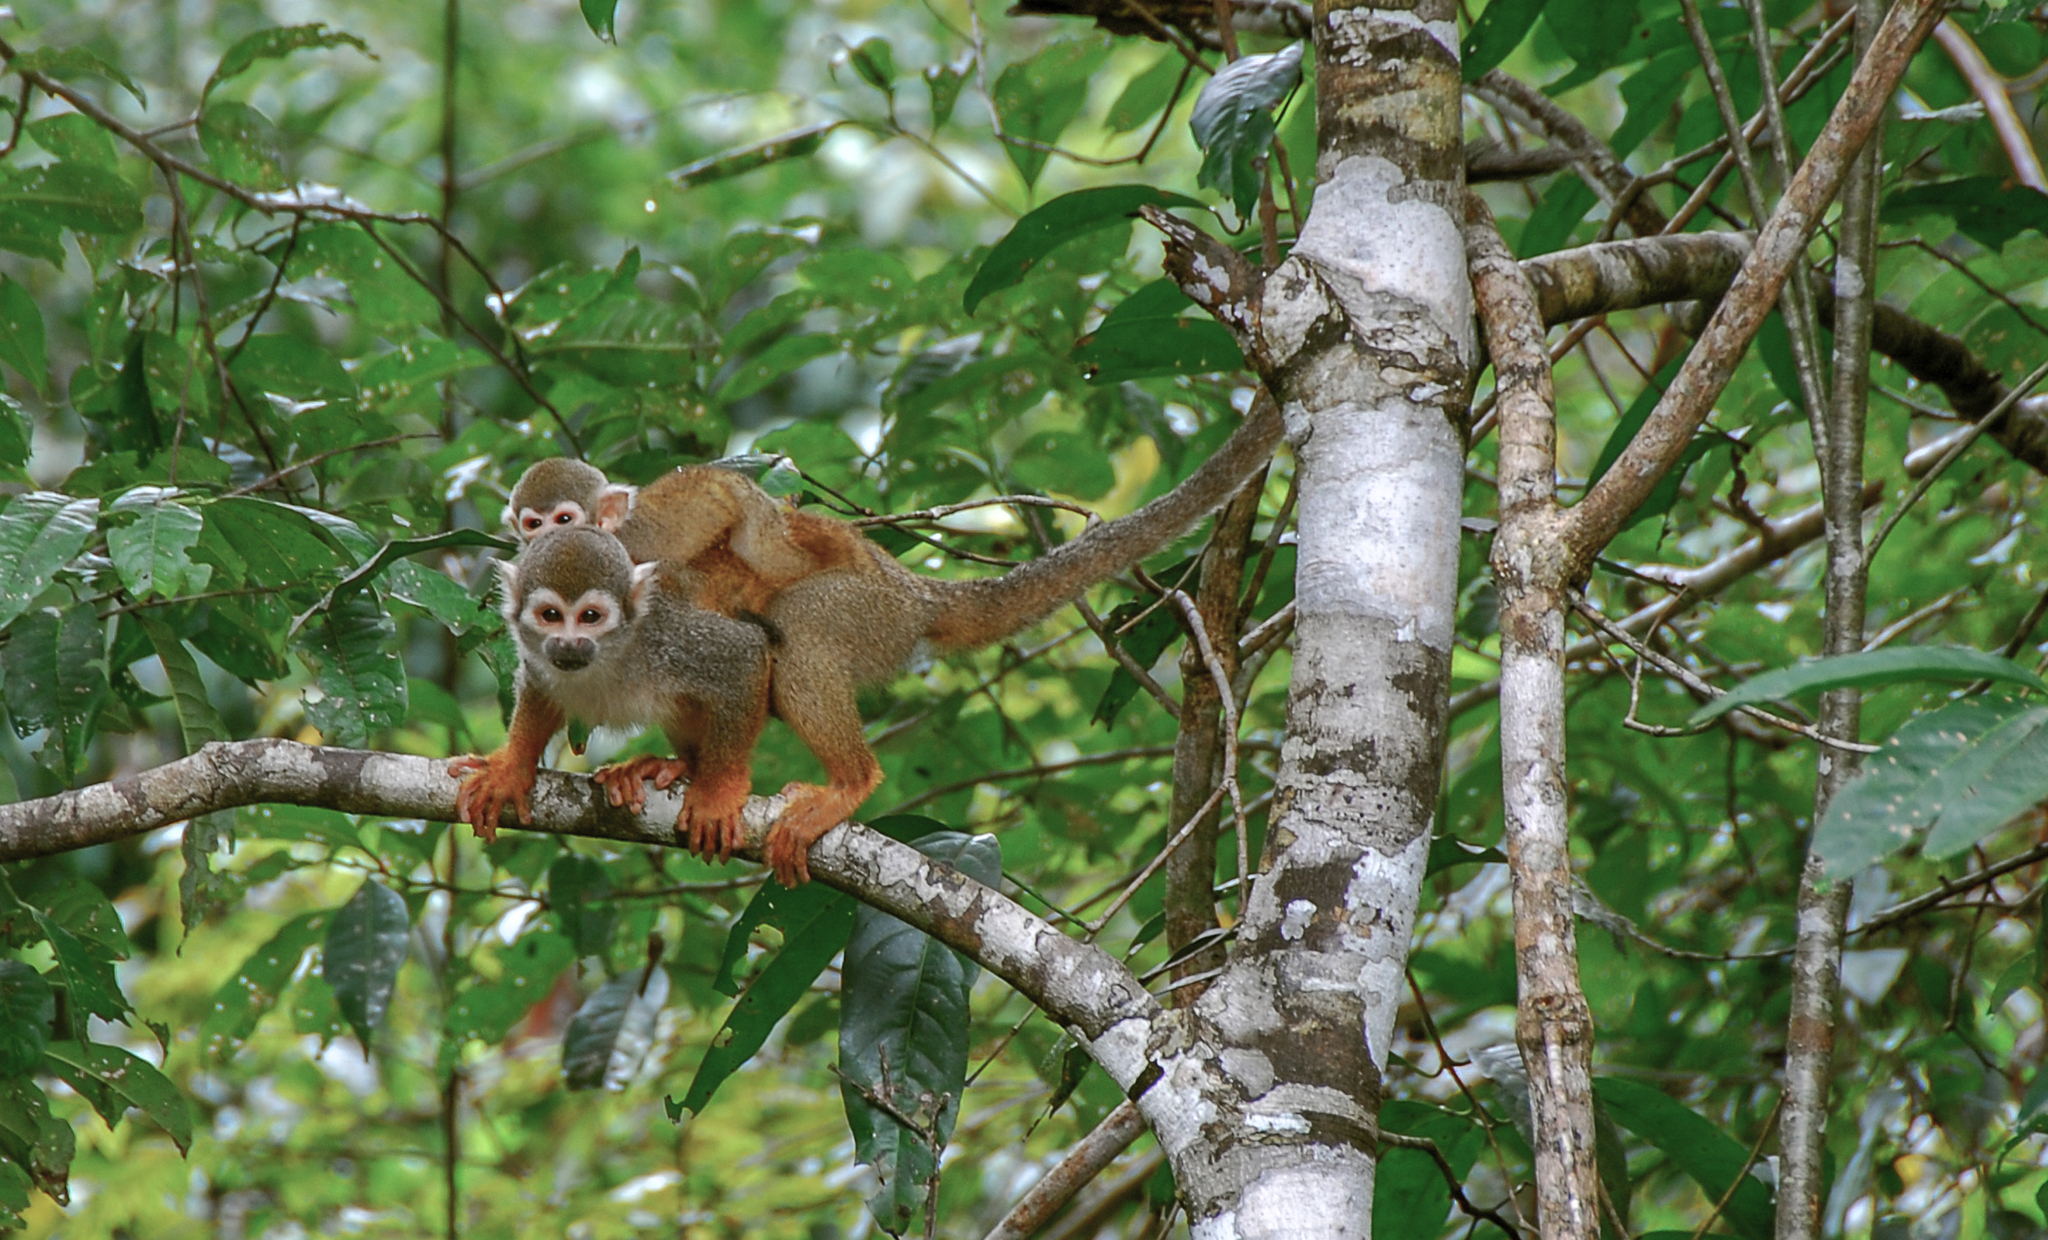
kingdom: Animalia
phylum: Chordata
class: Mammalia
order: Primates
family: Cebidae
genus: Saimiri
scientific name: Saimiri cassiquiarensis
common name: Humboldt’s squirrel monkey
